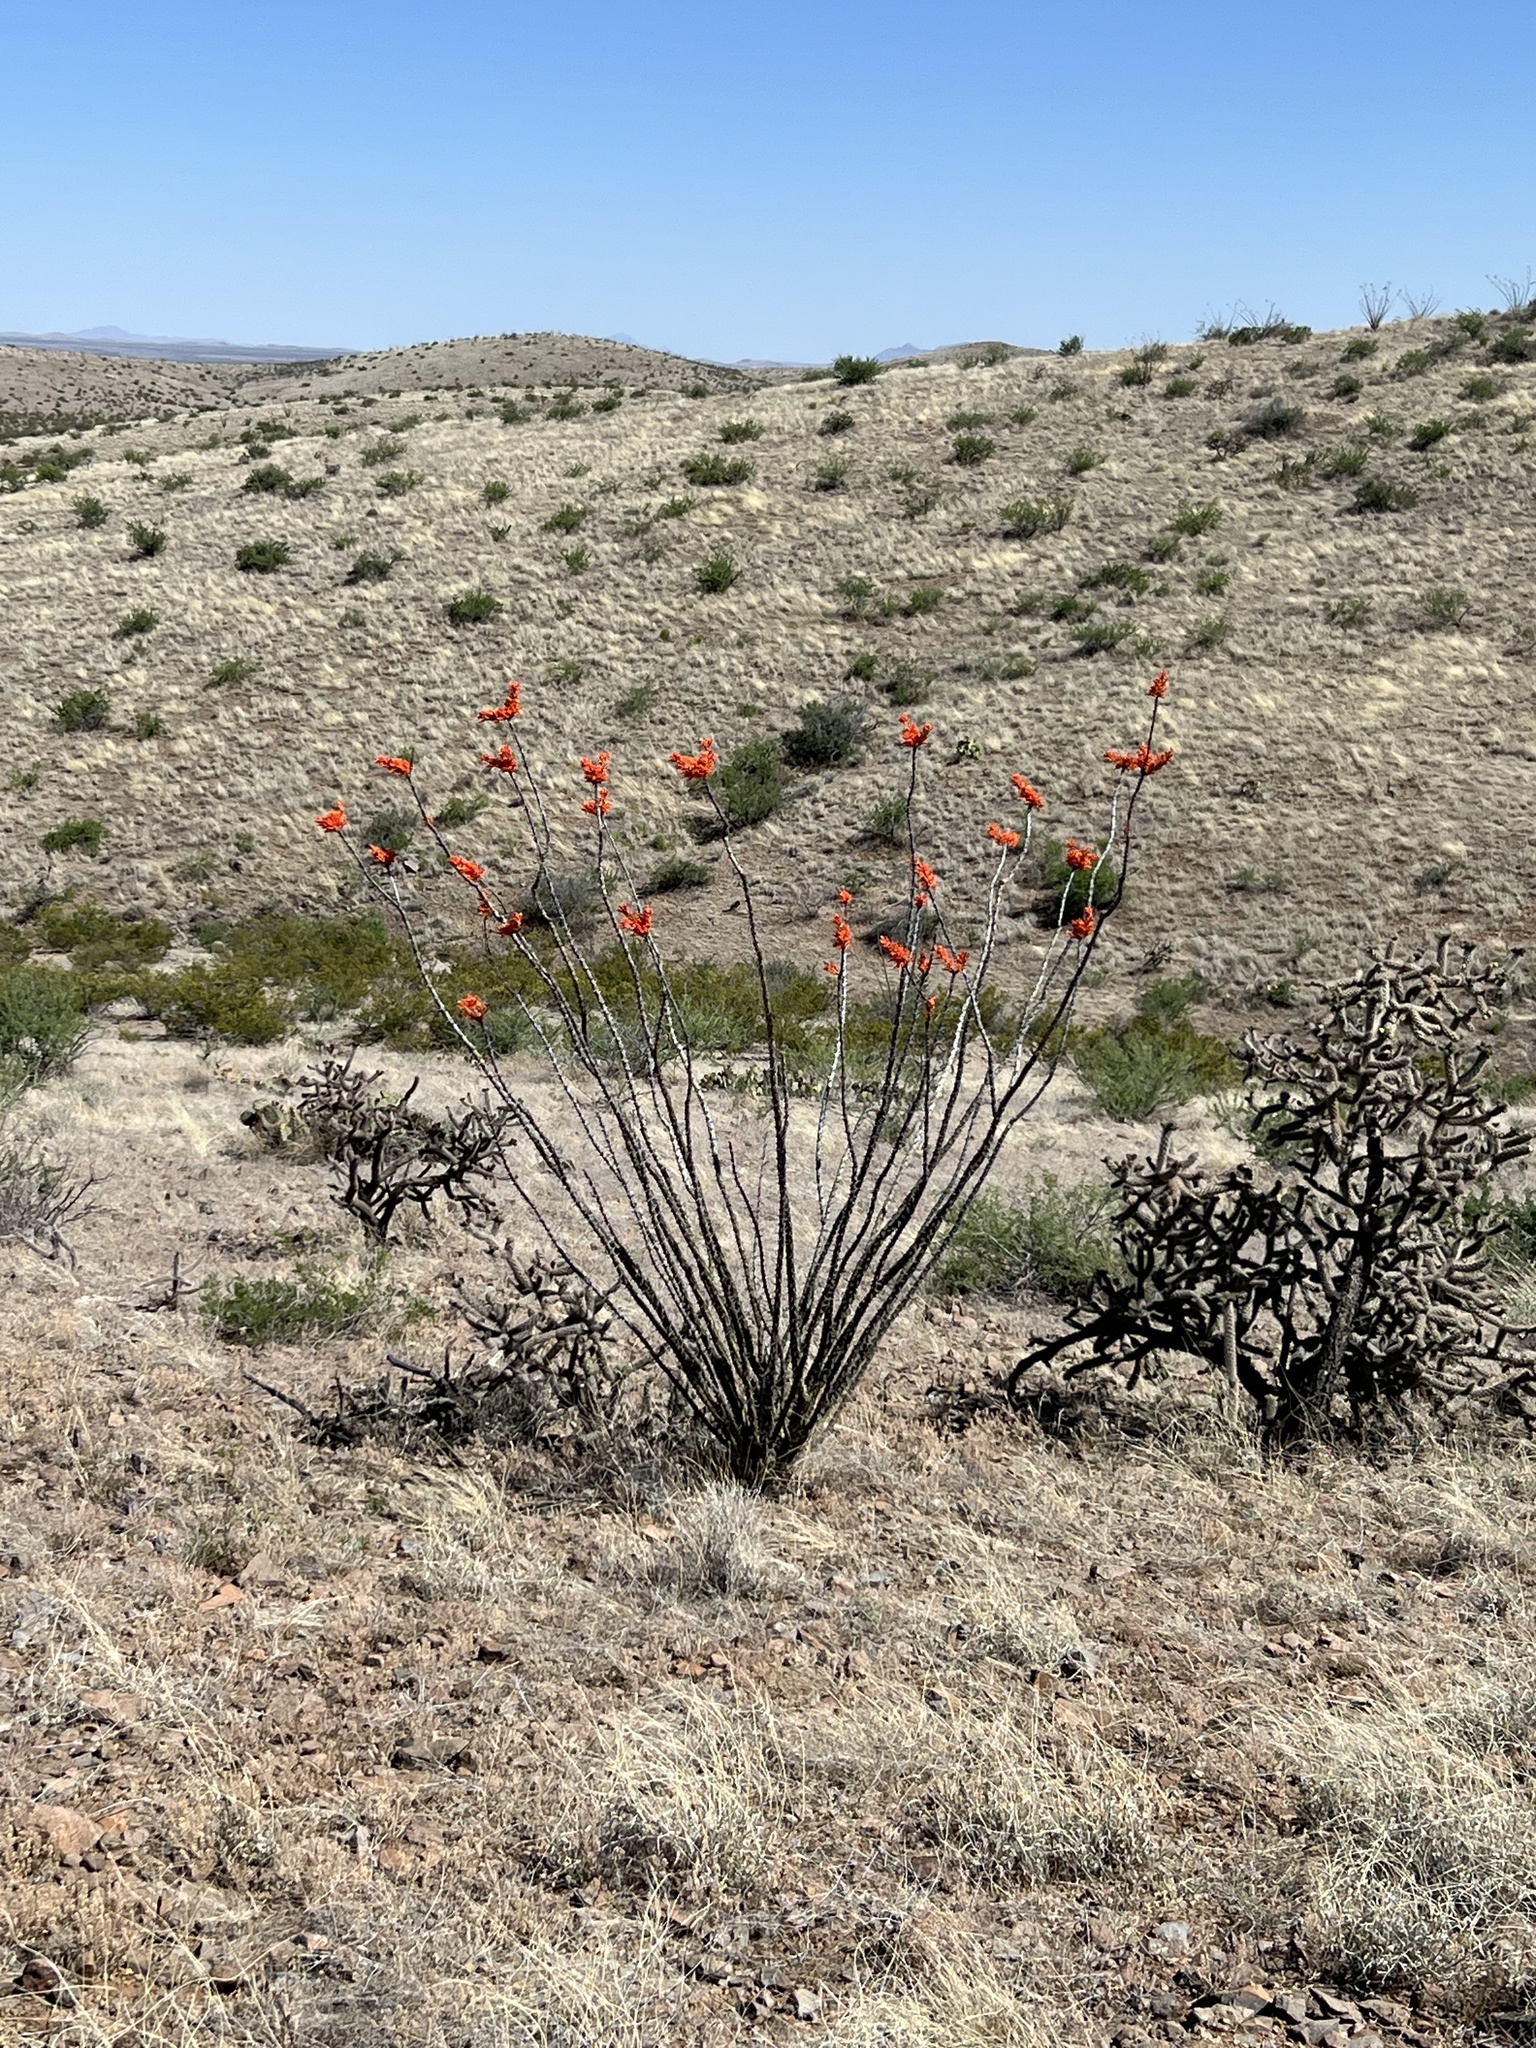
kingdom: Plantae
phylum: Tracheophyta
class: Magnoliopsida
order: Ericales
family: Fouquieriaceae
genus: Fouquieria
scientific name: Fouquieria splendens
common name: Vine-cactus
